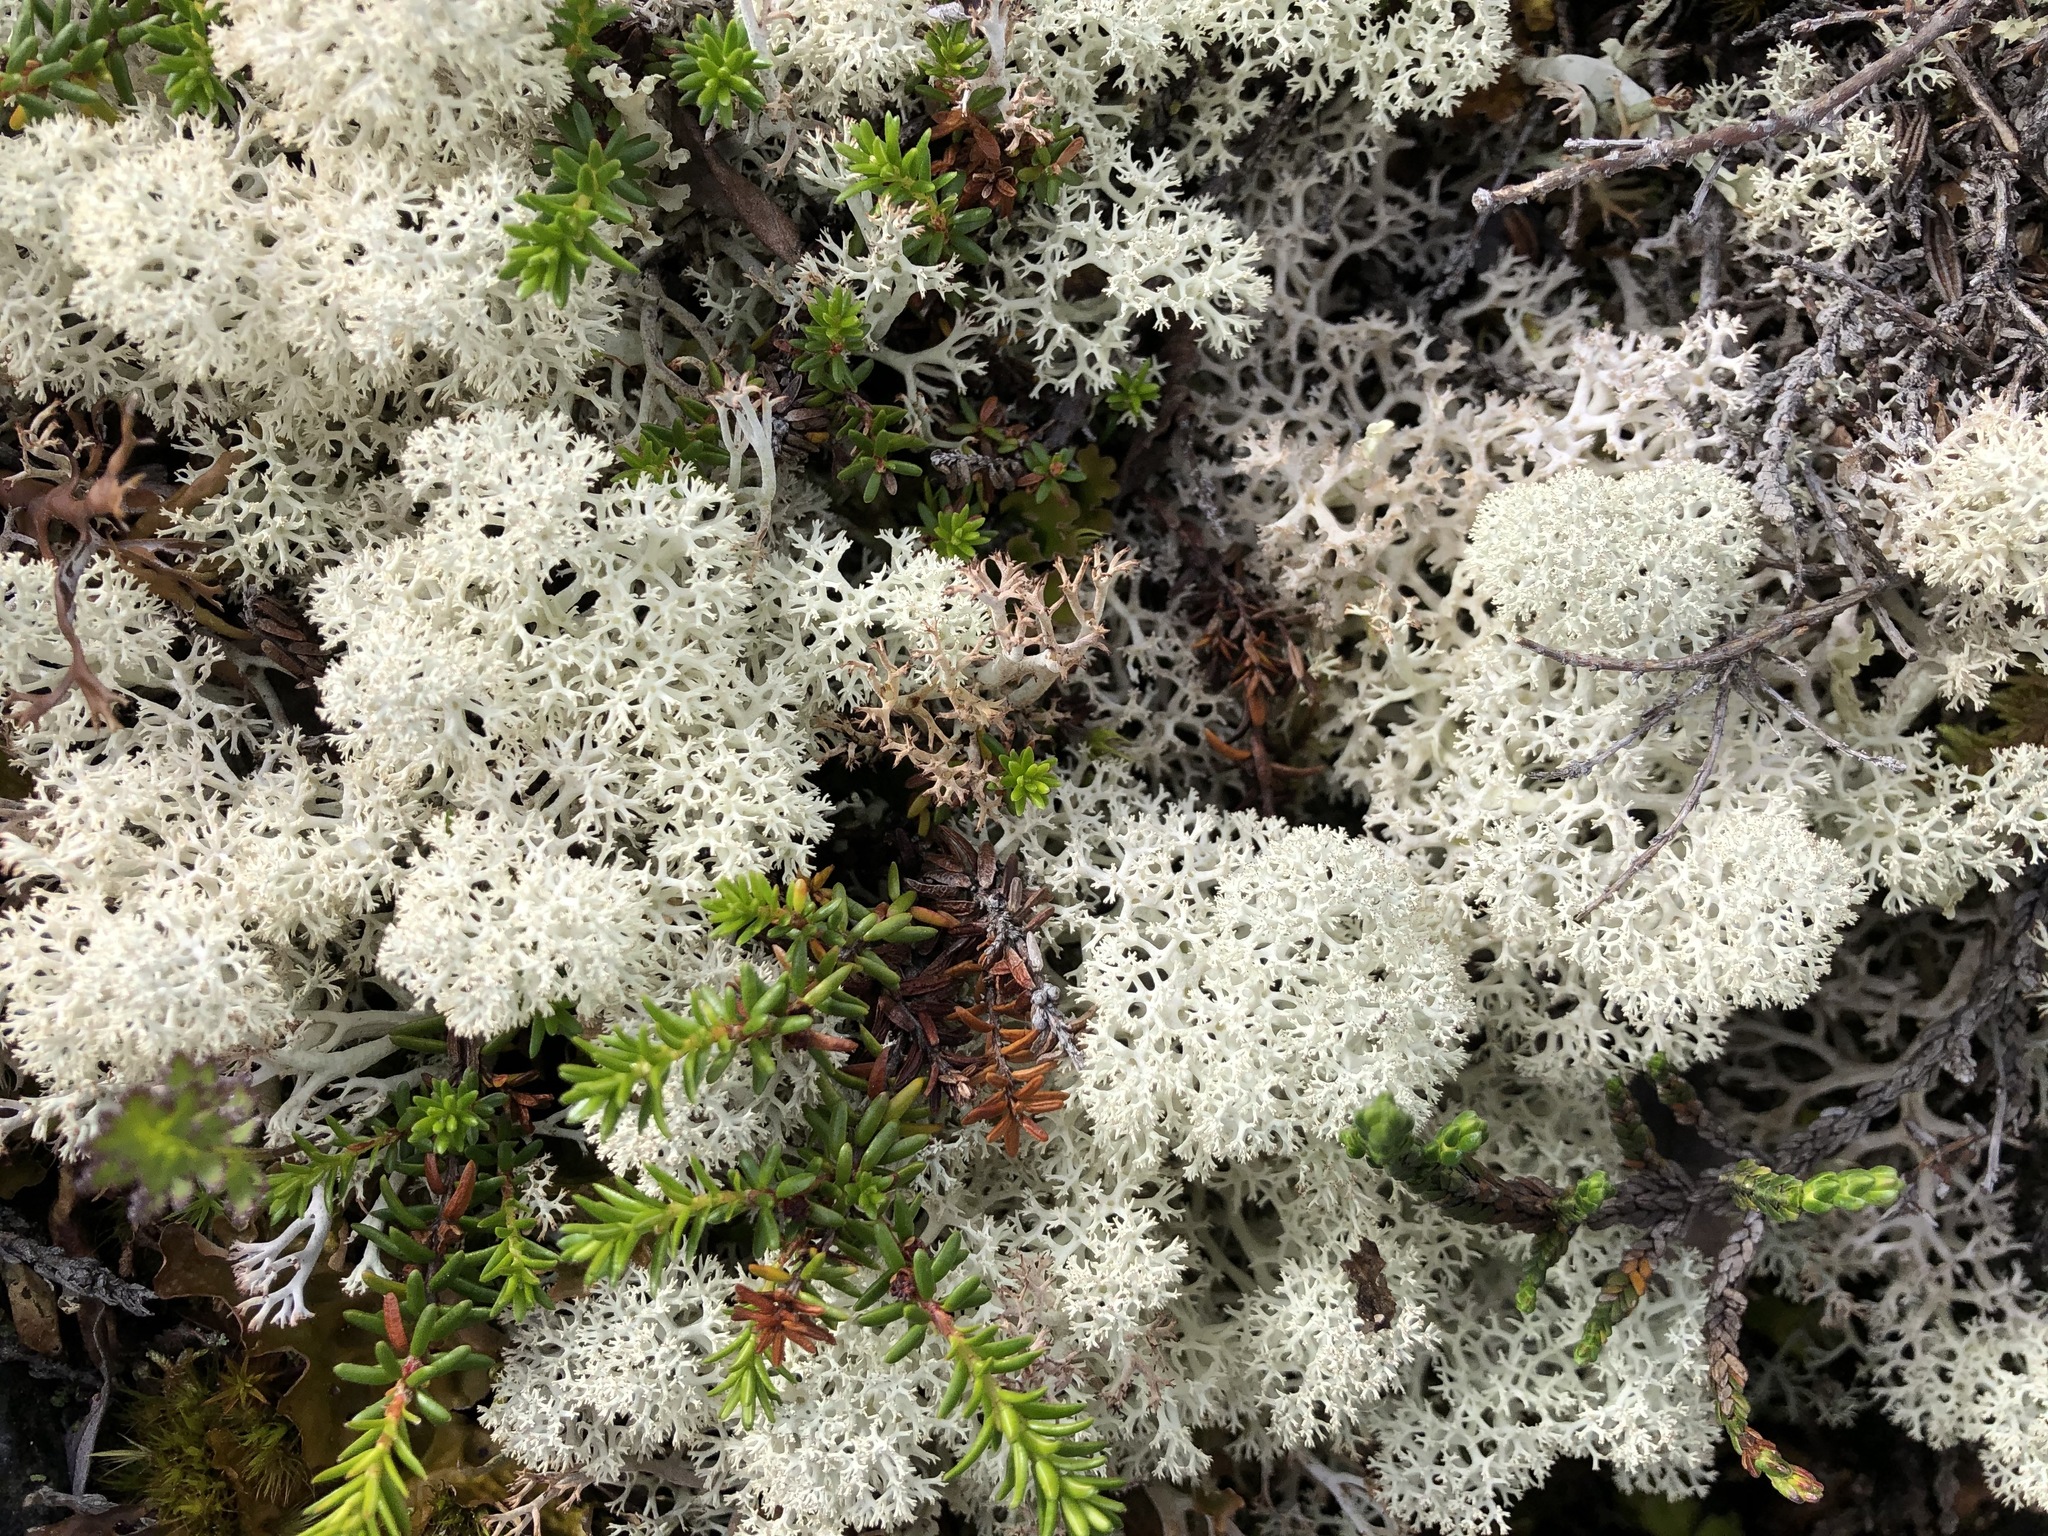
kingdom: Fungi
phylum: Ascomycota
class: Lecanoromycetes
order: Lecanorales
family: Cladoniaceae
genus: Cladonia
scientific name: Cladonia stellaris
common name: Star-tipped reindeer lichen
